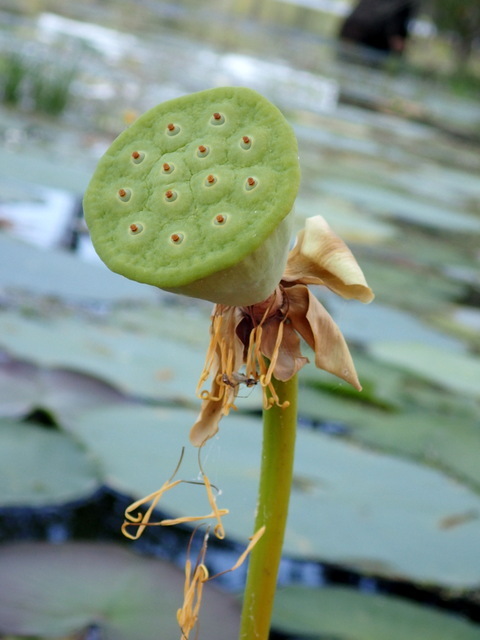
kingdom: Plantae
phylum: Tracheophyta
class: Magnoliopsida
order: Proteales
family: Nelumbonaceae
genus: Nelumbo
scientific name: Nelumbo lutea
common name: American lotus
